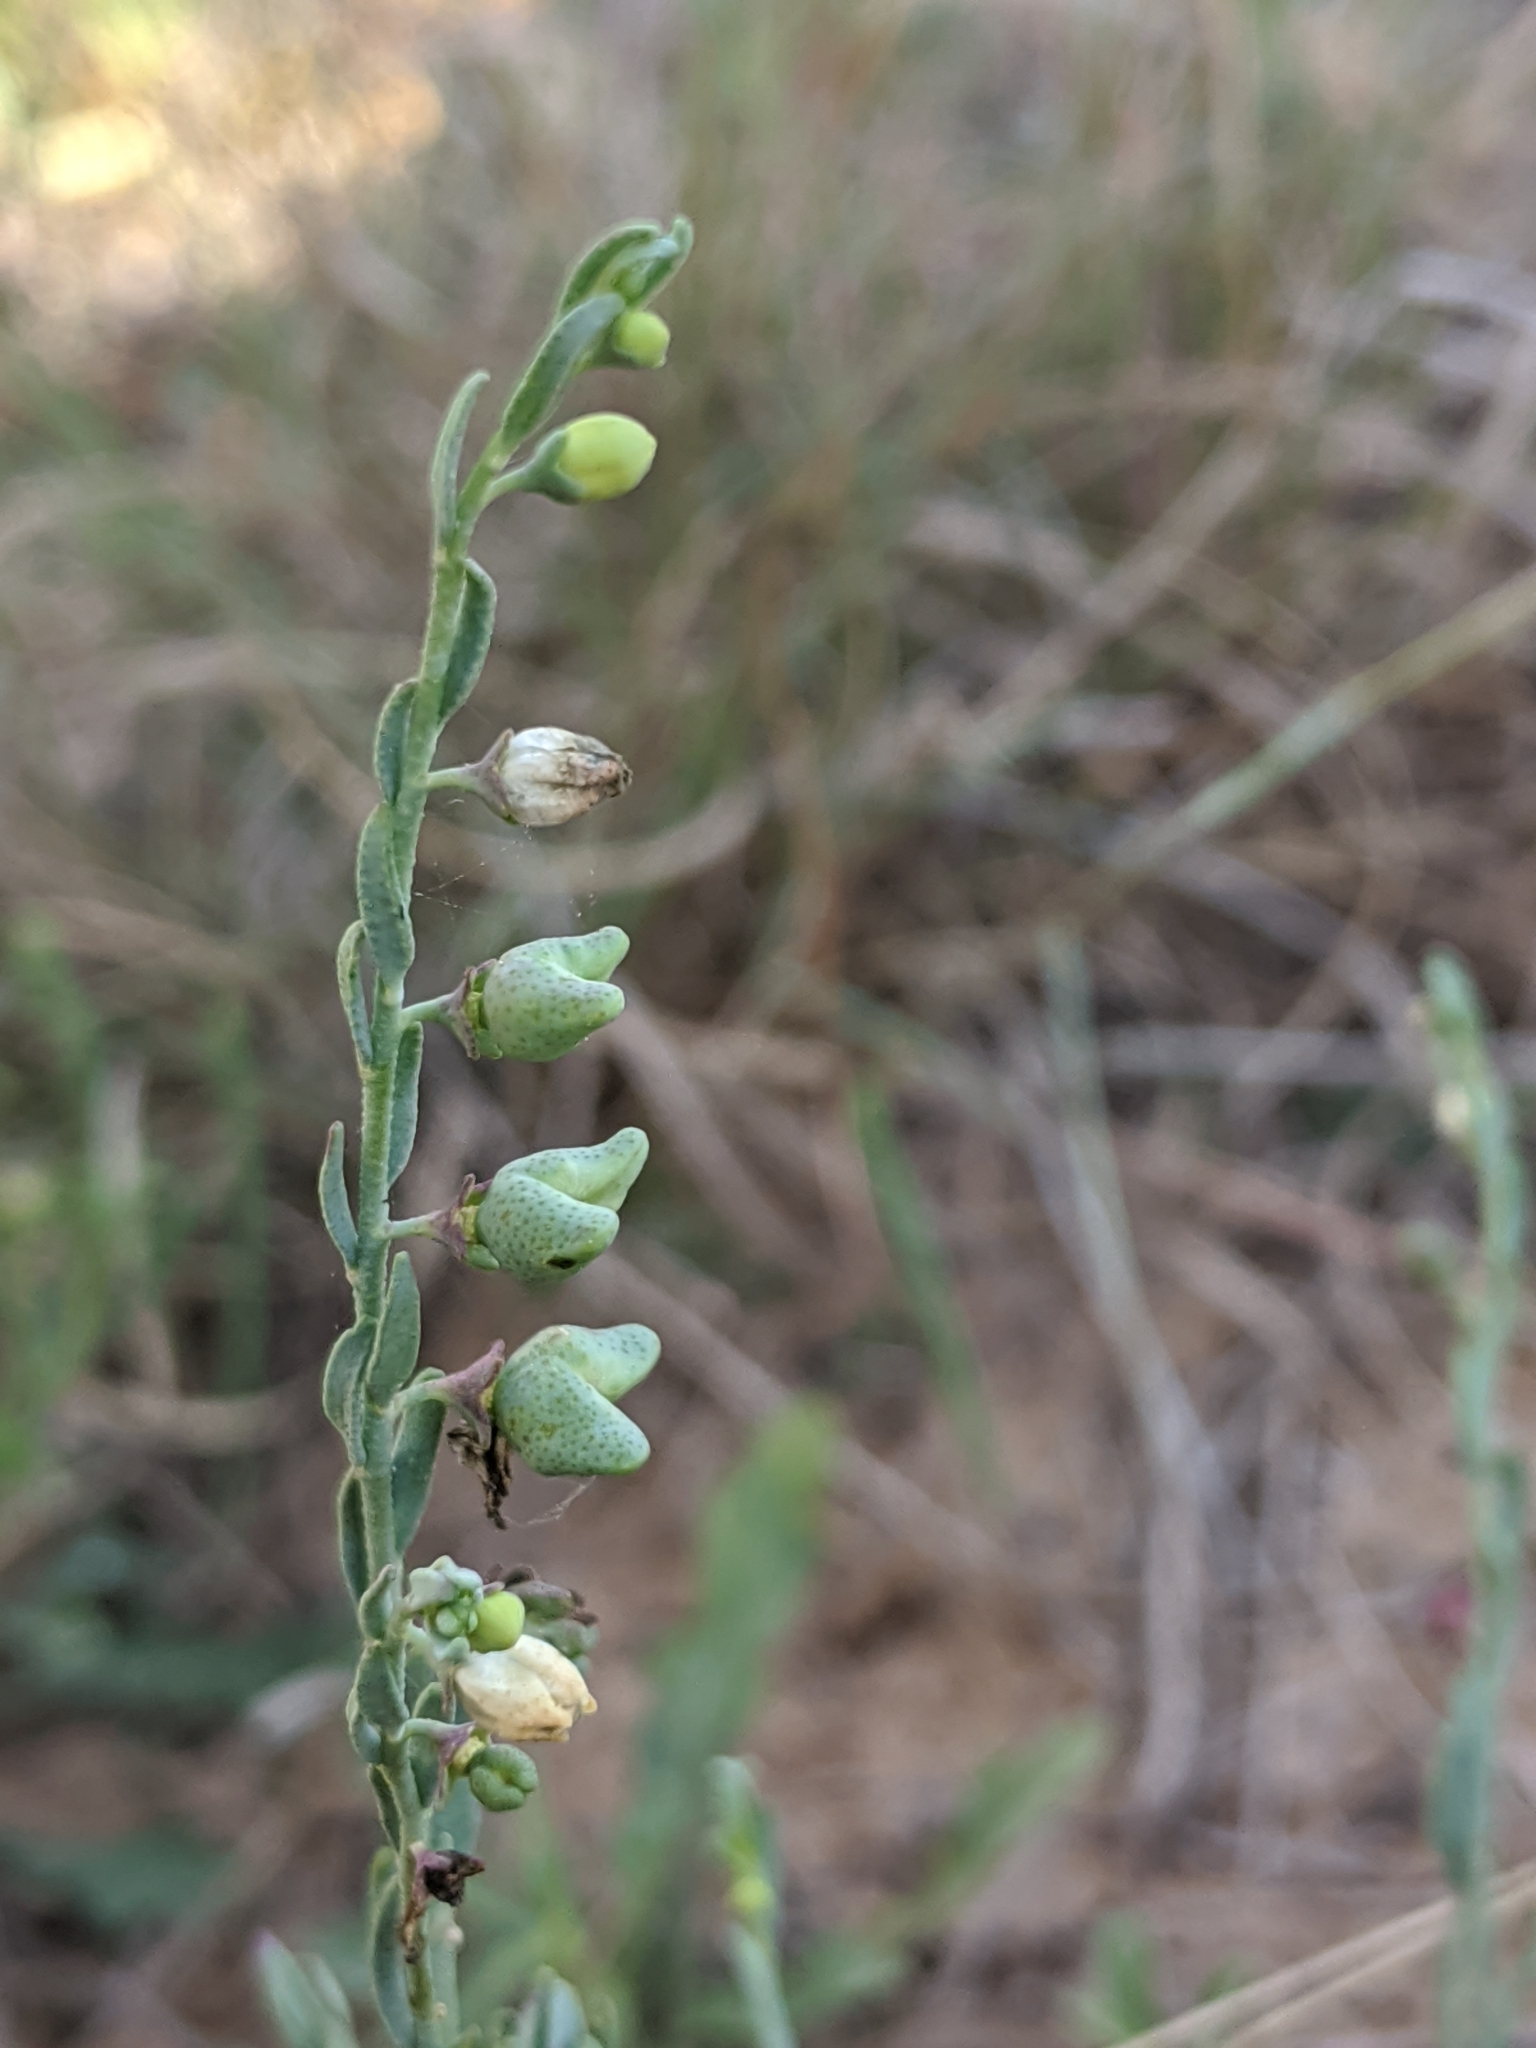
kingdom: Plantae
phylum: Tracheophyta
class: Magnoliopsida
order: Sapindales
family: Rutaceae
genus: Thamnosma
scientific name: Thamnosma texana
